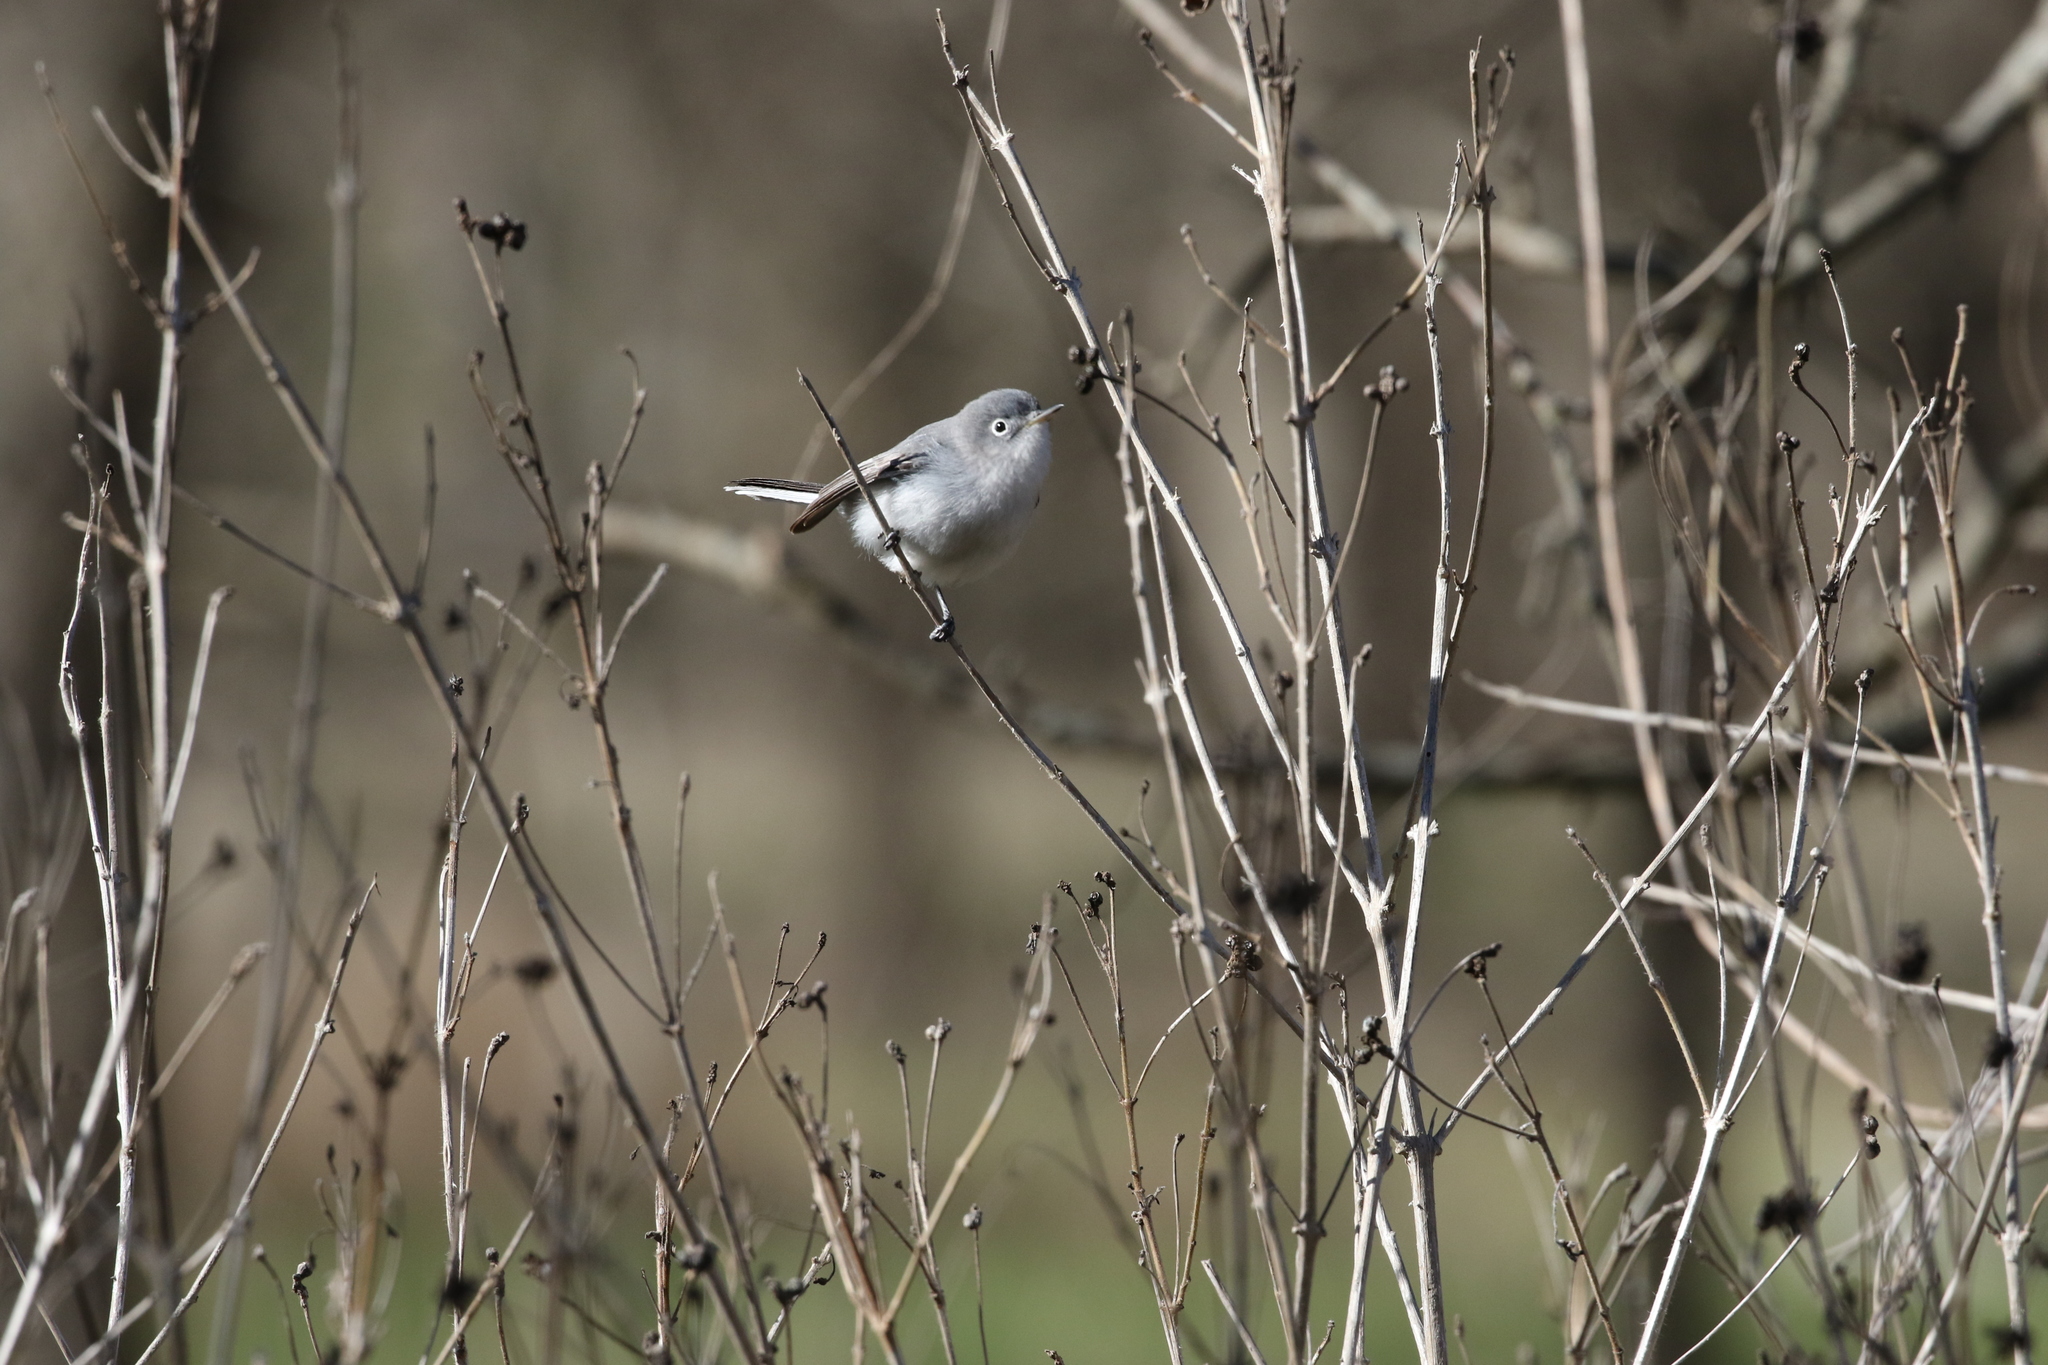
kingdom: Animalia
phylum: Chordata
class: Aves
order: Passeriformes
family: Polioptilidae
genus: Polioptila
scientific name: Polioptila caerulea
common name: Blue-gray gnatcatcher
